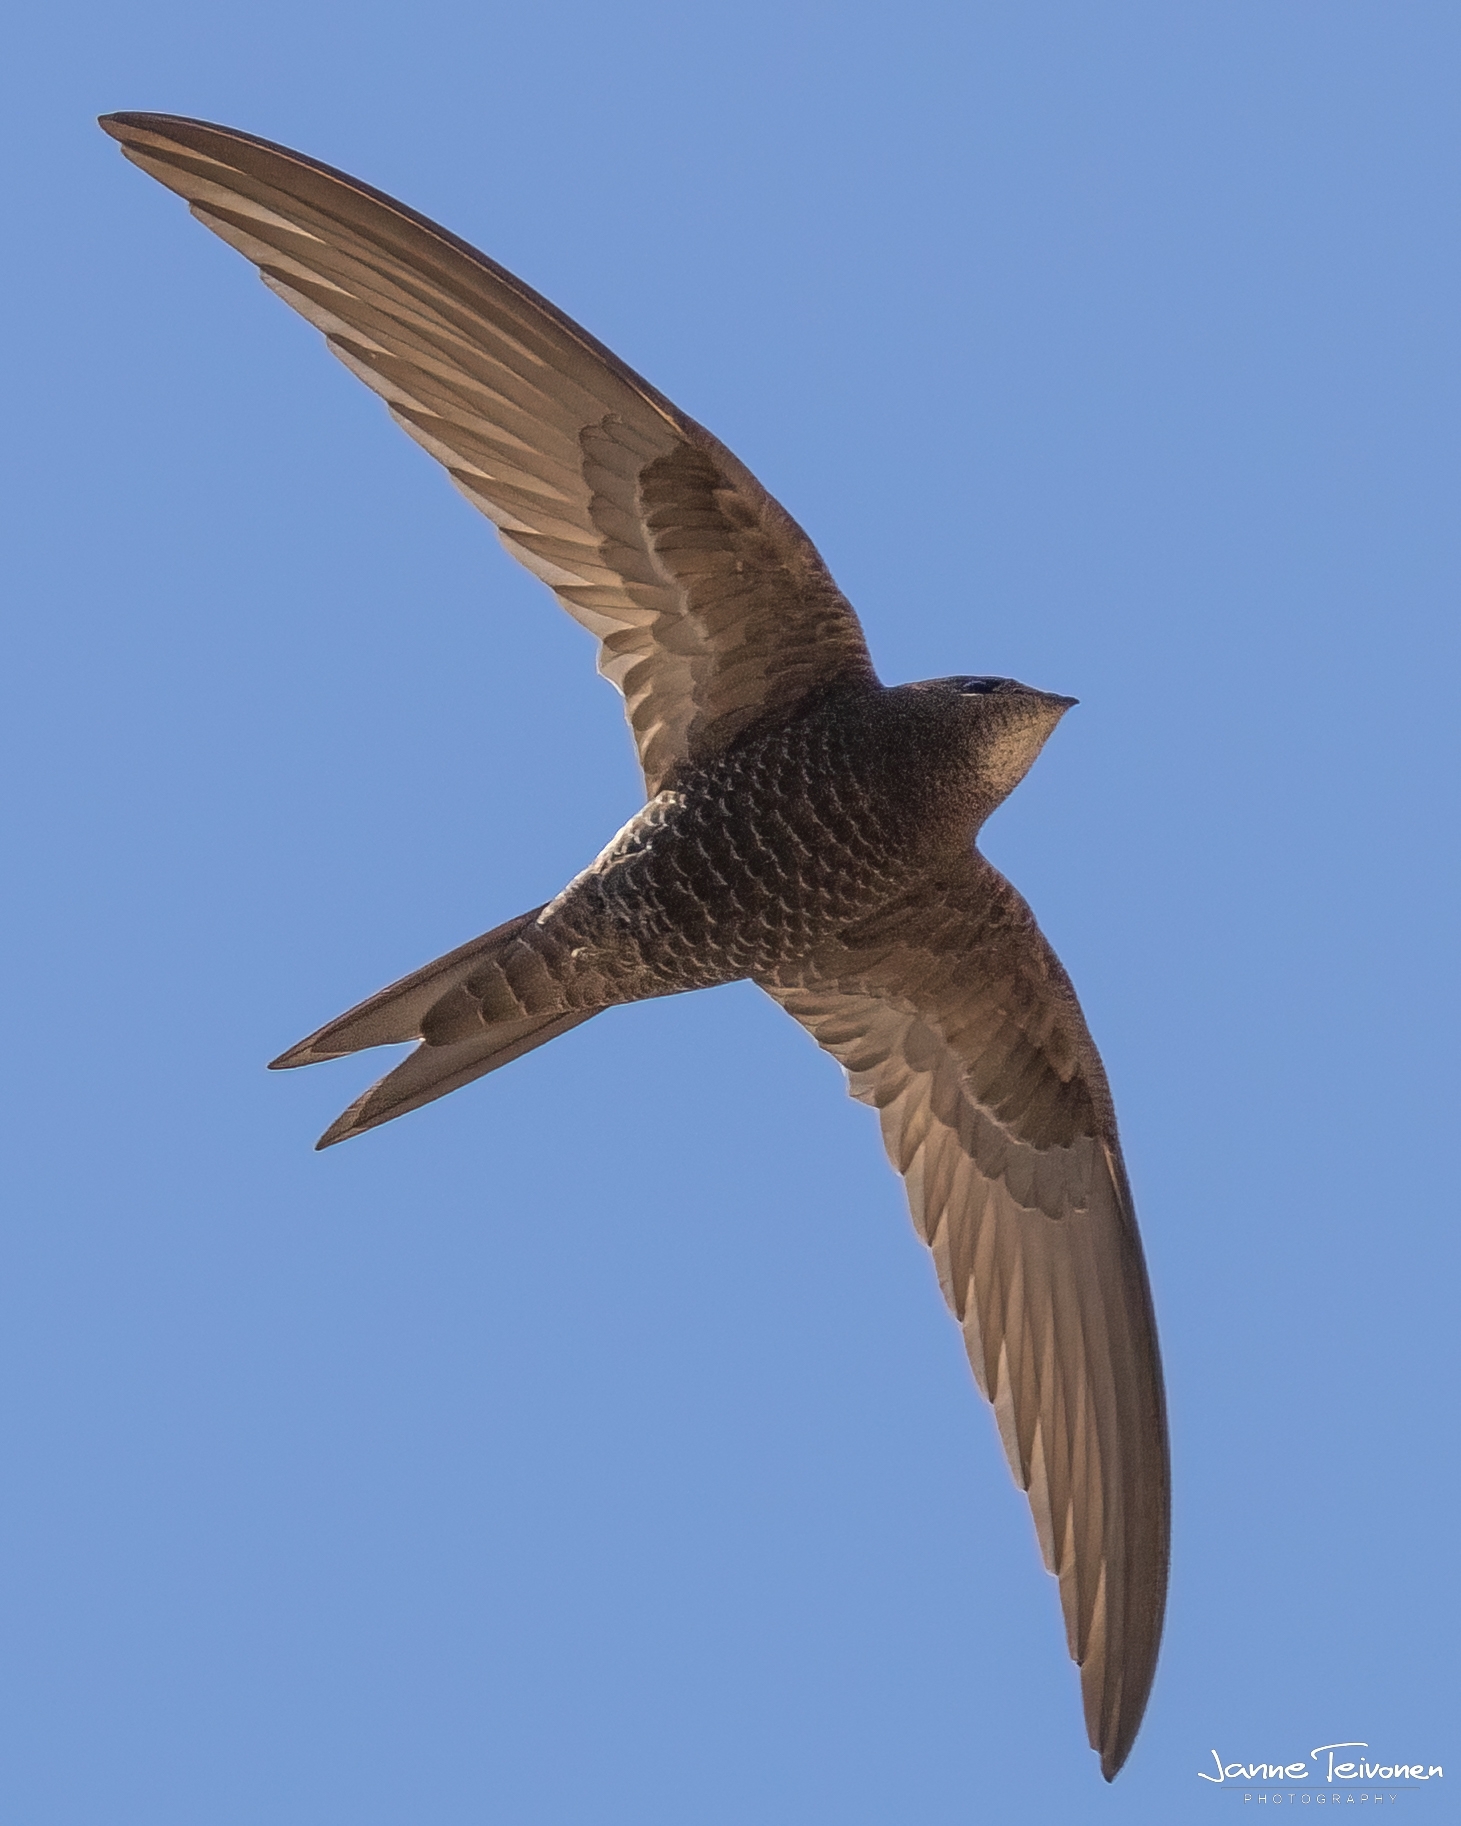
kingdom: Animalia
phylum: Chordata
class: Aves
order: Apodiformes
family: Apodidae
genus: Apus
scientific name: Apus pallidus
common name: Pallid swift
